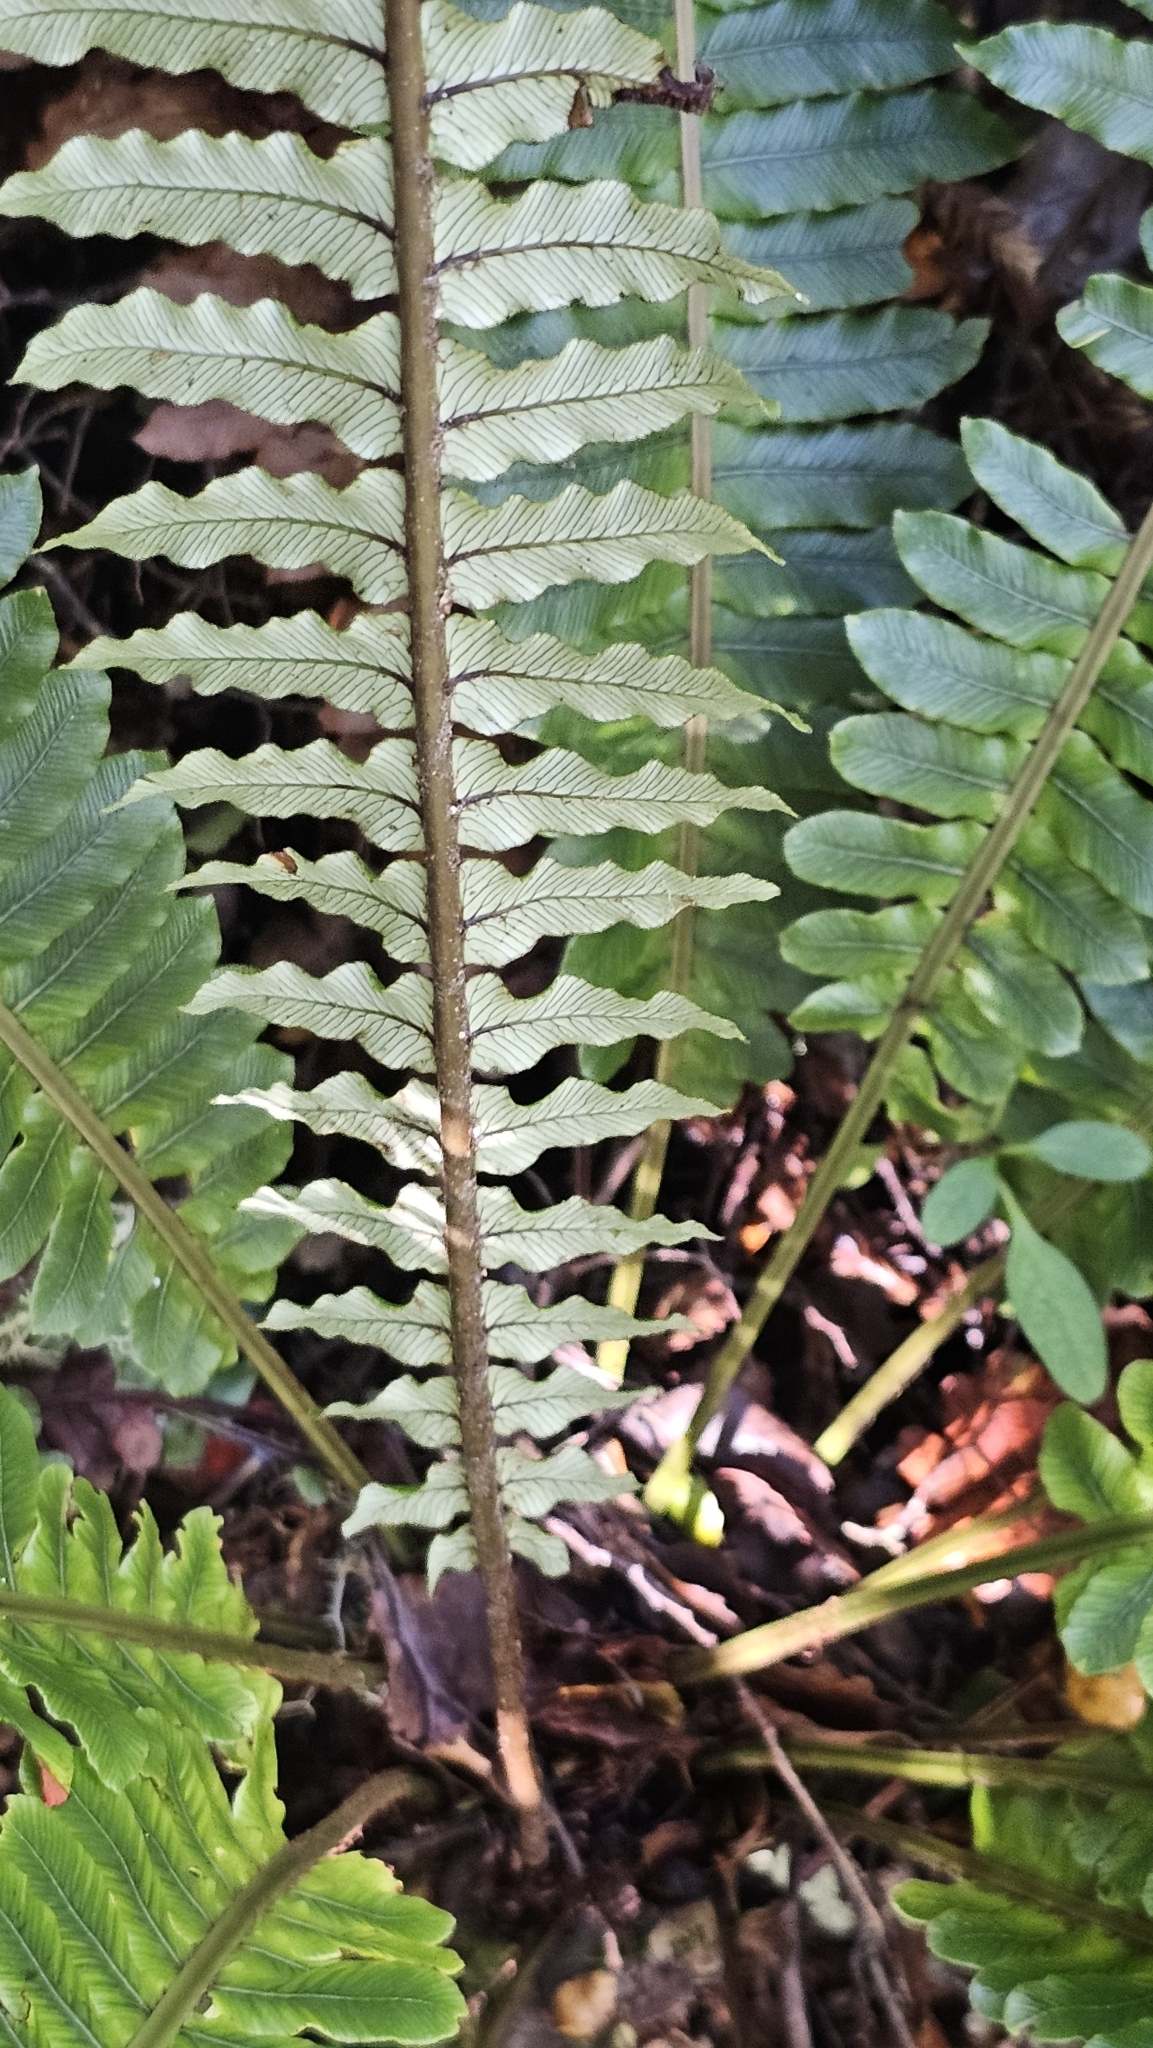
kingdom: Plantae
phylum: Tracheophyta
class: Polypodiopsida
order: Polypodiales
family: Blechnaceae
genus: Lomaria
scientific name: Lomaria discolor
